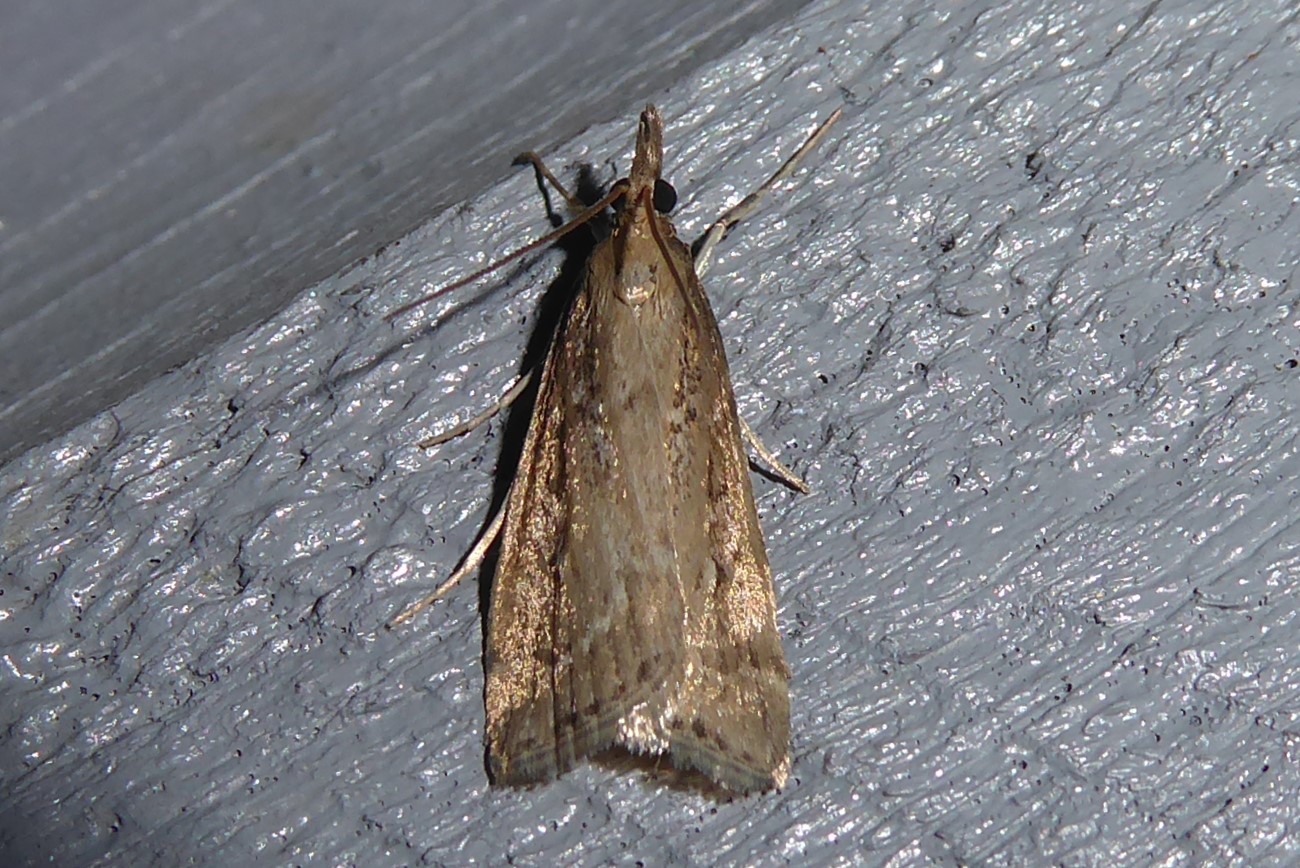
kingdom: Animalia
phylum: Arthropoda
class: Insecta
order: Lepidoptera
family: Crambidae
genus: Eudonia
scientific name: Eudonia octophora
